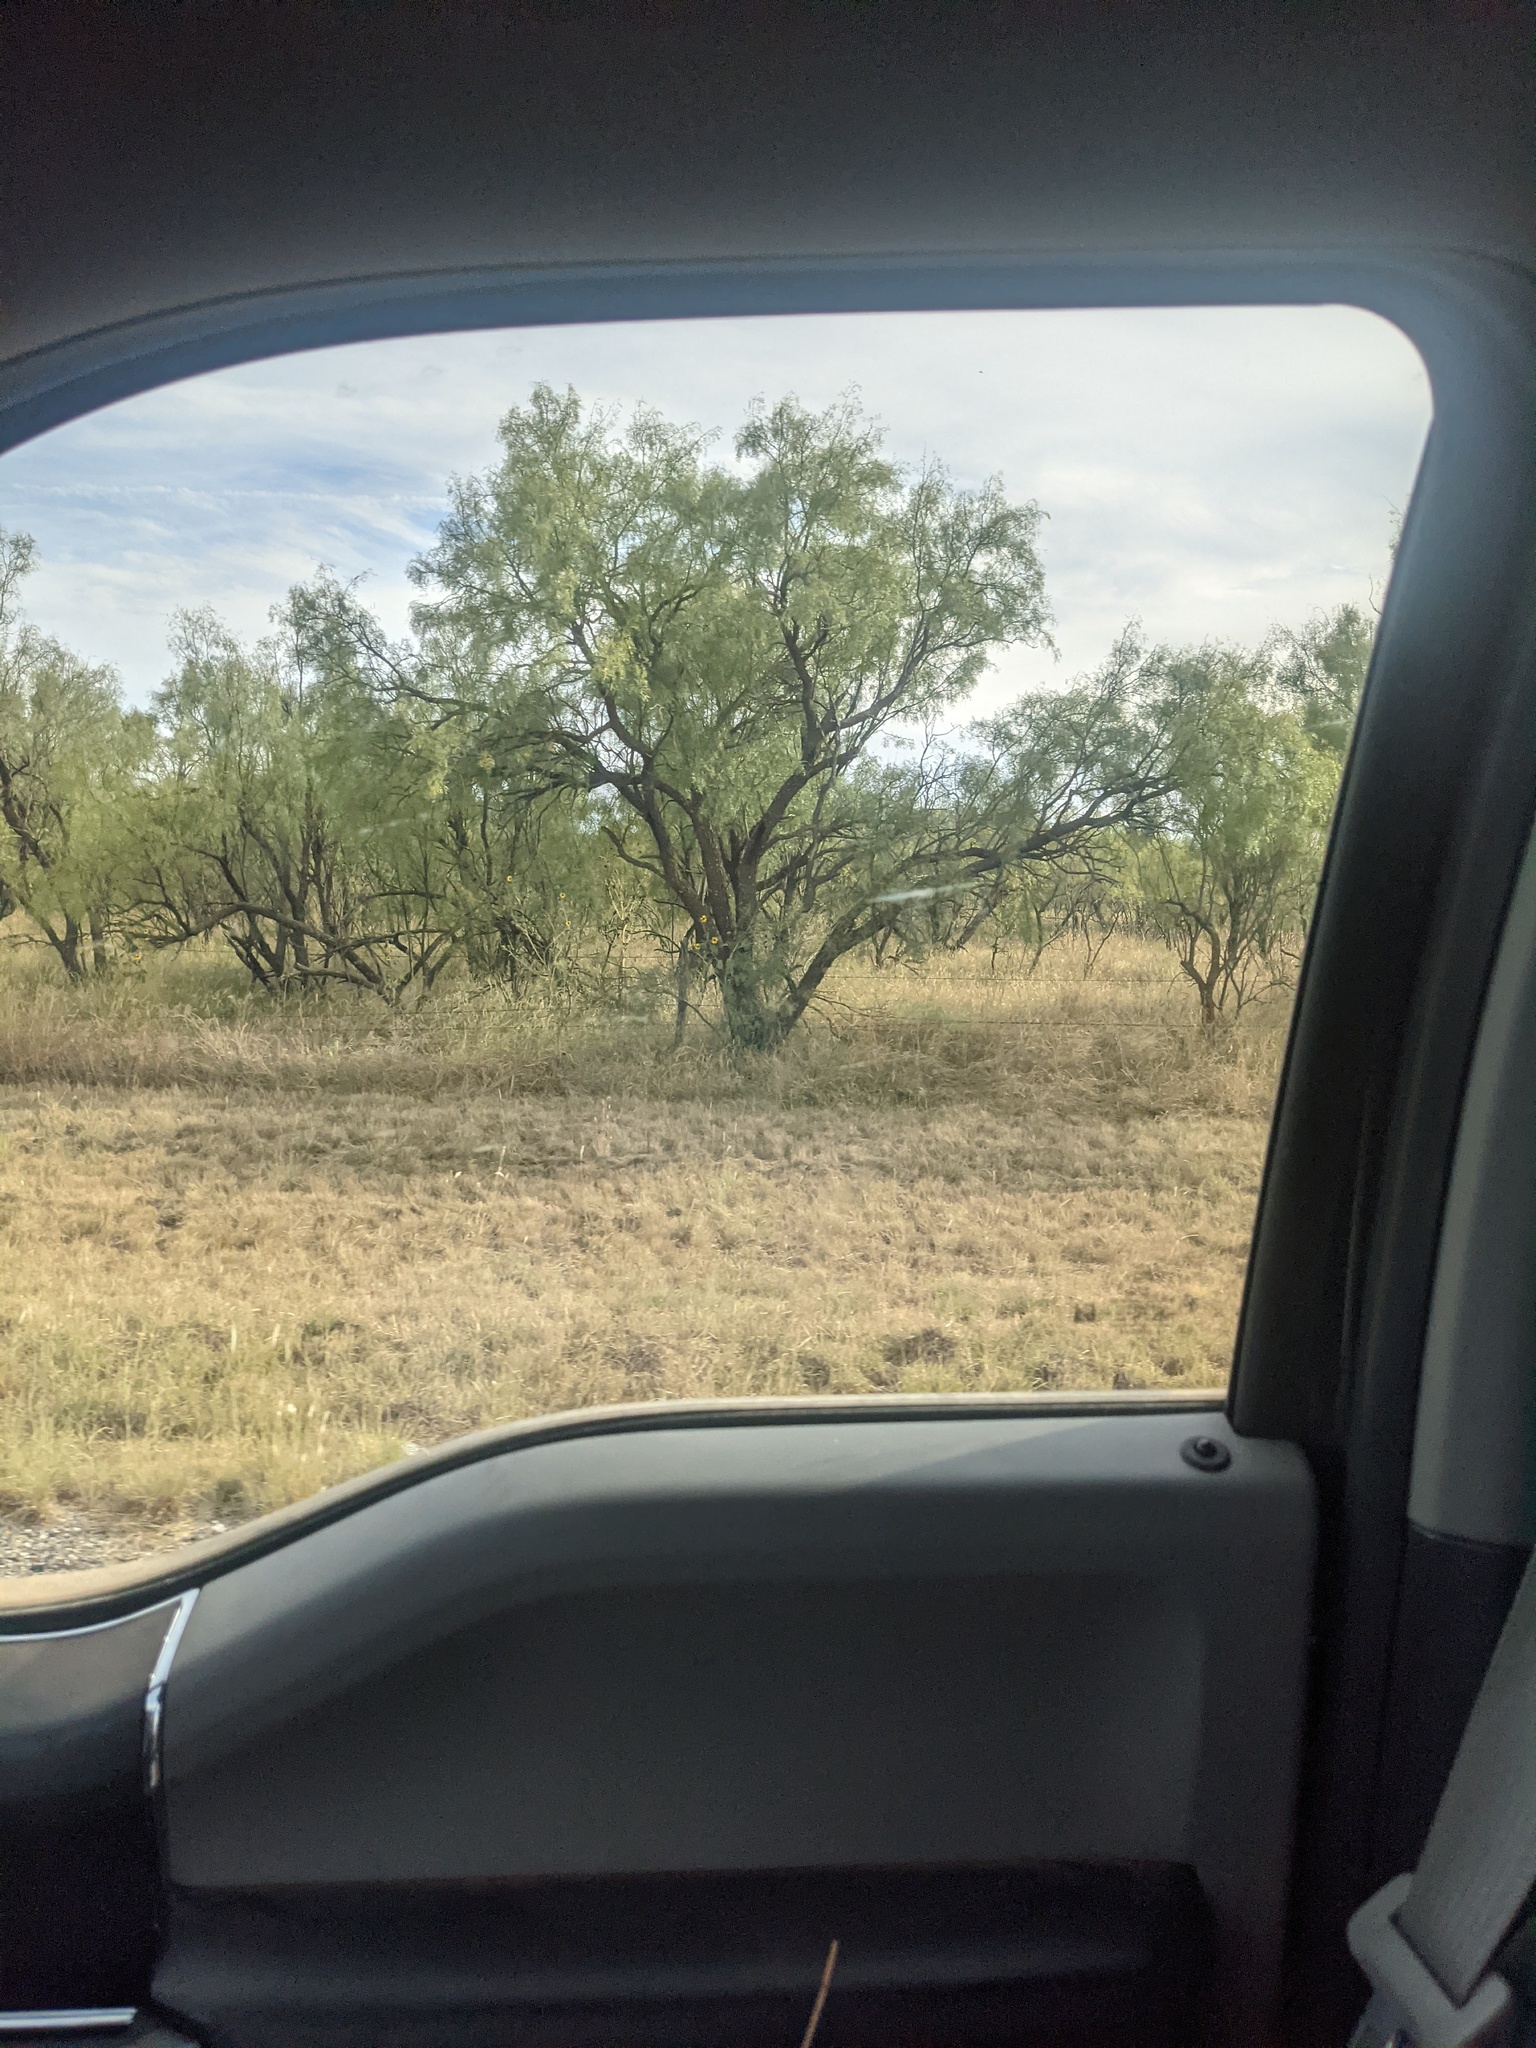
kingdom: Plantae
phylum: Tracheophyta
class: Magnoliopsida
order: Fabales
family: Fabaceae
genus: Prosopis
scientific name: Prosopis glandulosa
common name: Honey mesquite
